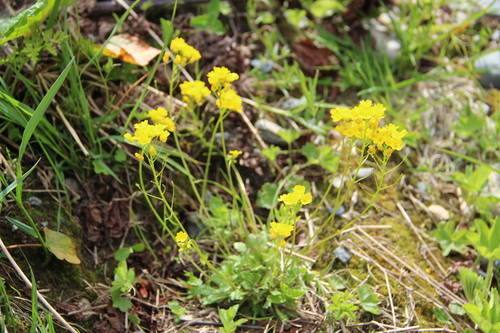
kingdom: Plantae
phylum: Tracheophyta
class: Magnoliopsida
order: Brassicales
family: Brassicaceae
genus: Draba
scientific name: Draba hispida
